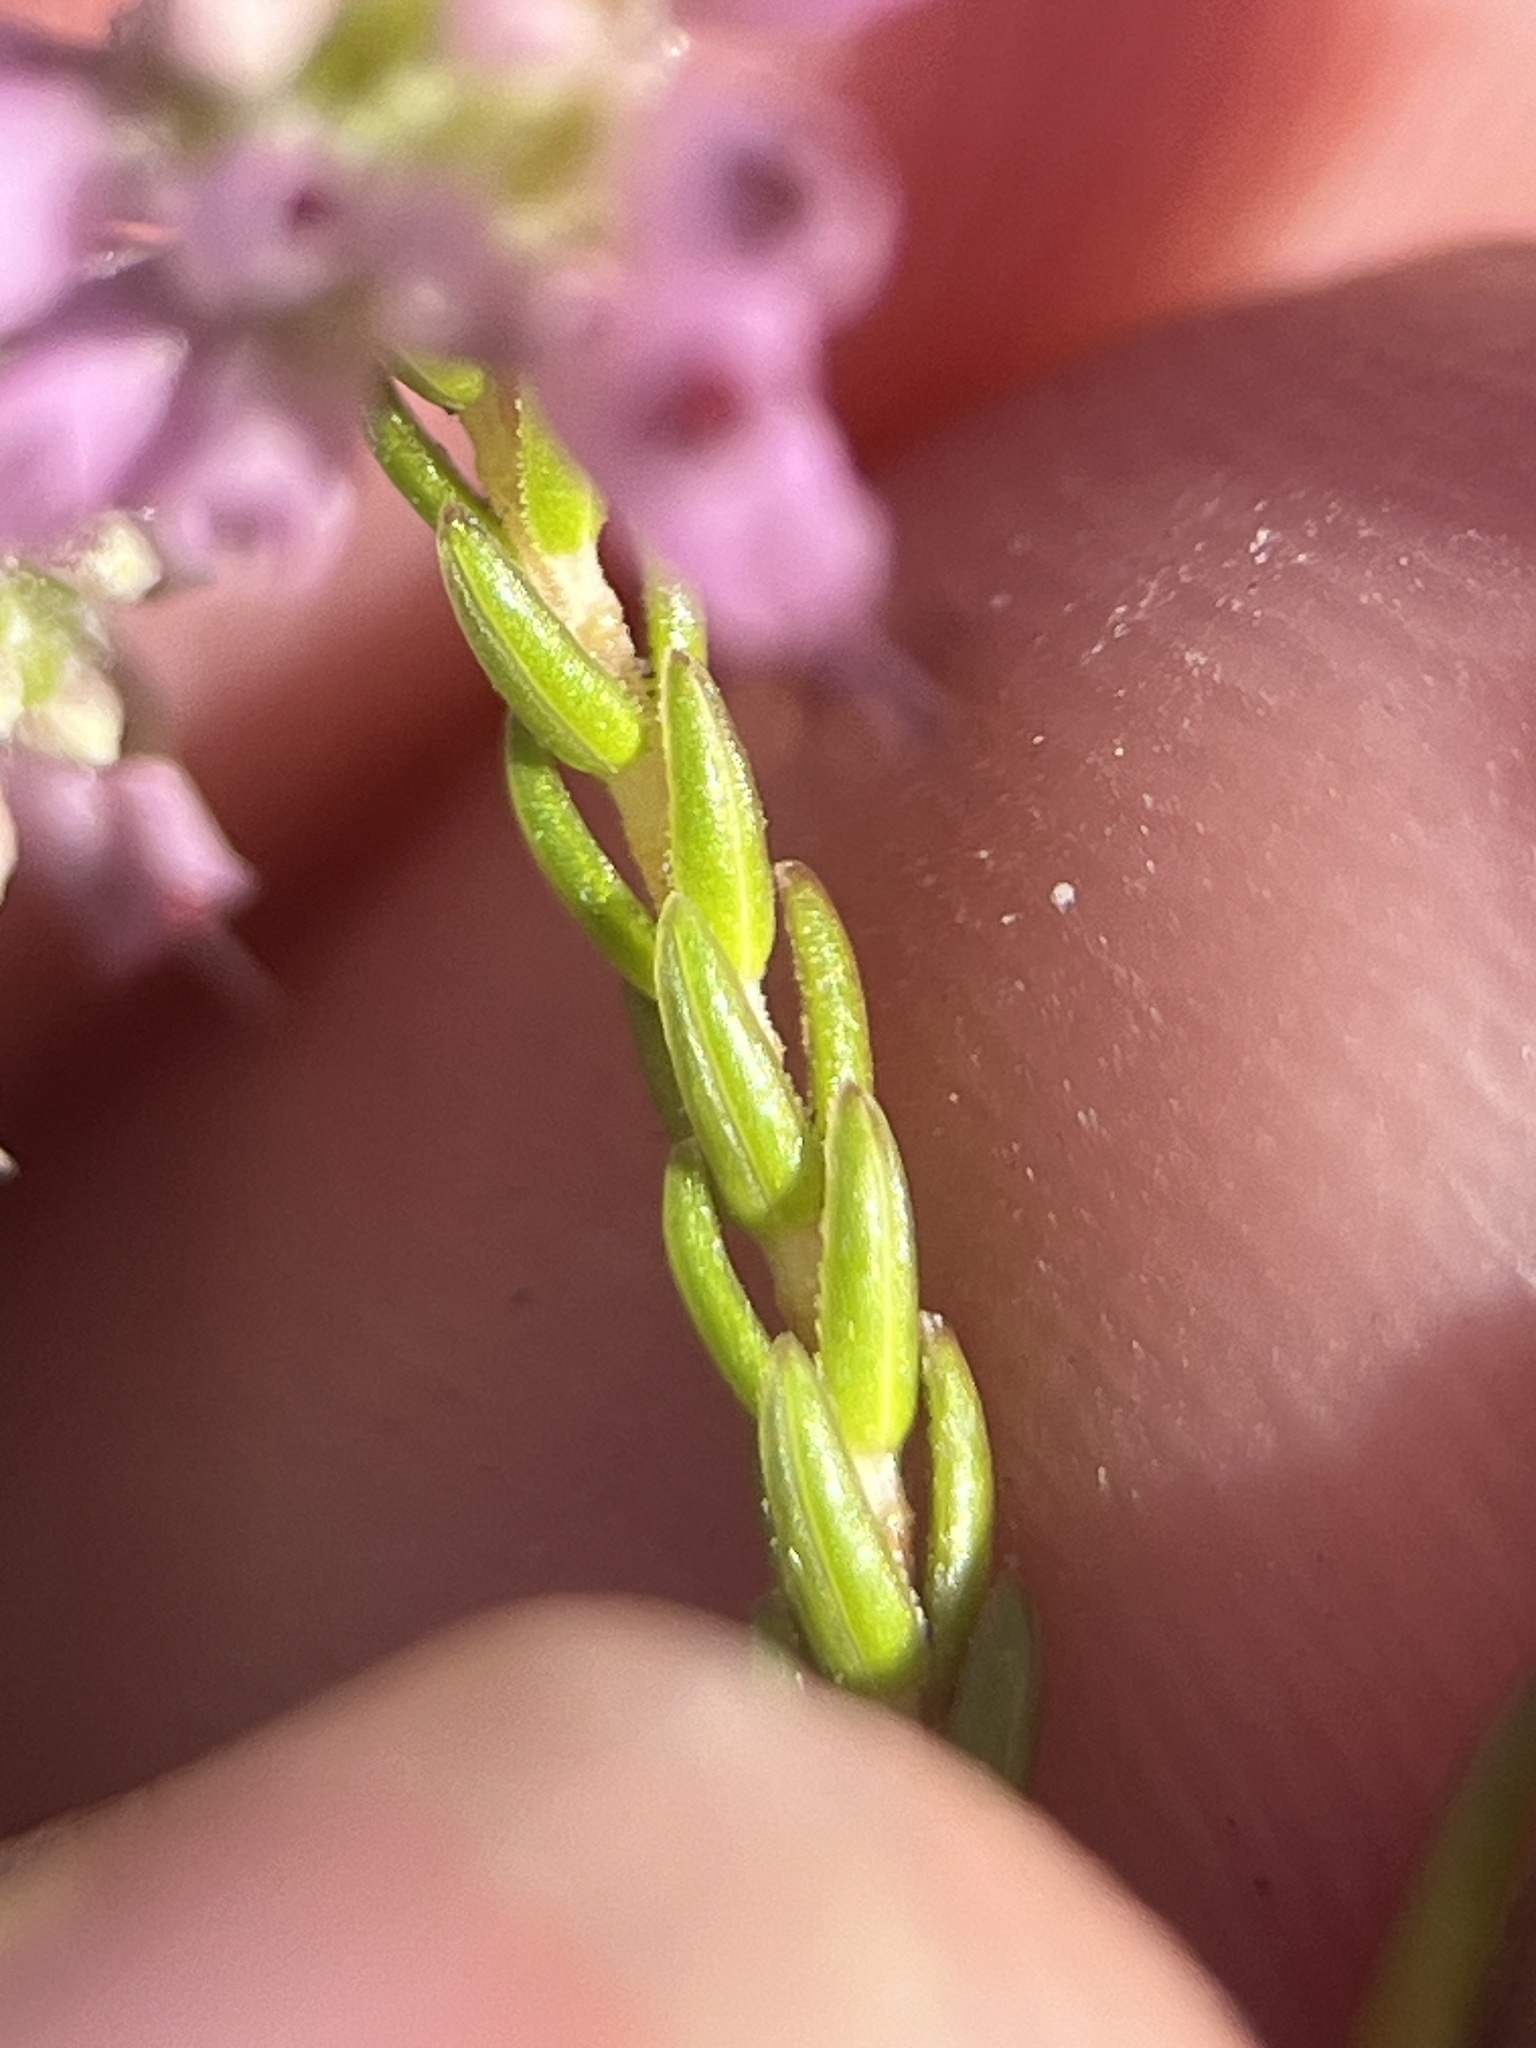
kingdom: Plantae
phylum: Tracheophyta
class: Magnoliopsida
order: Ericales
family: Ericaceae
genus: Erica
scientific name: Erica labialis
